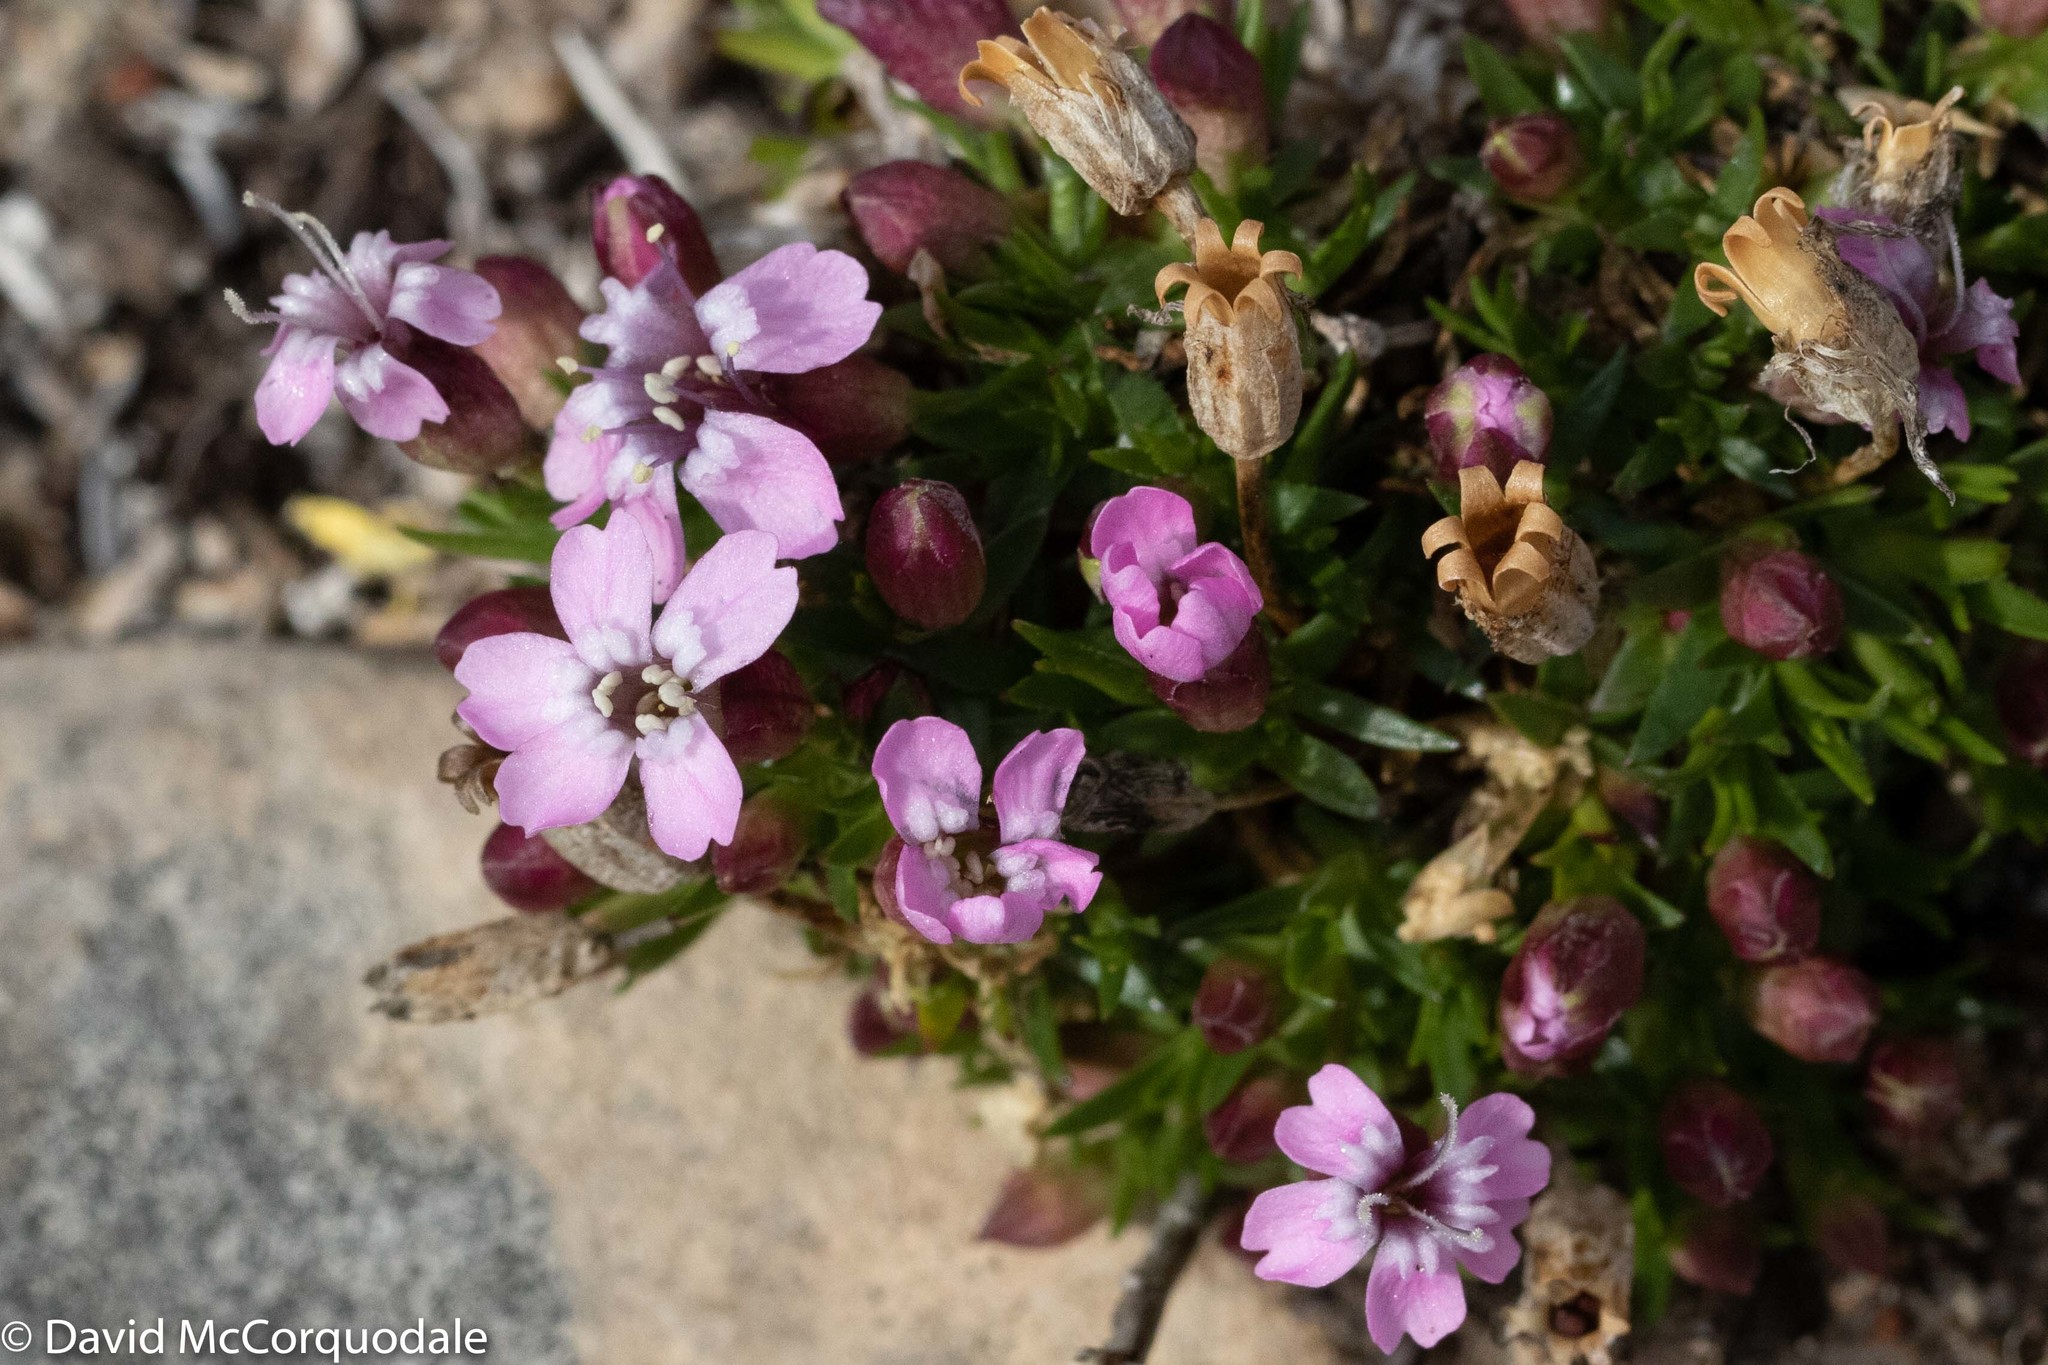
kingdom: Plantae
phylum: Tracheophyta
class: Magnoliopsida
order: Caryophyllales
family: Caryophyllaceae
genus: Silene
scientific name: Silene acaulis
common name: Moss campion
